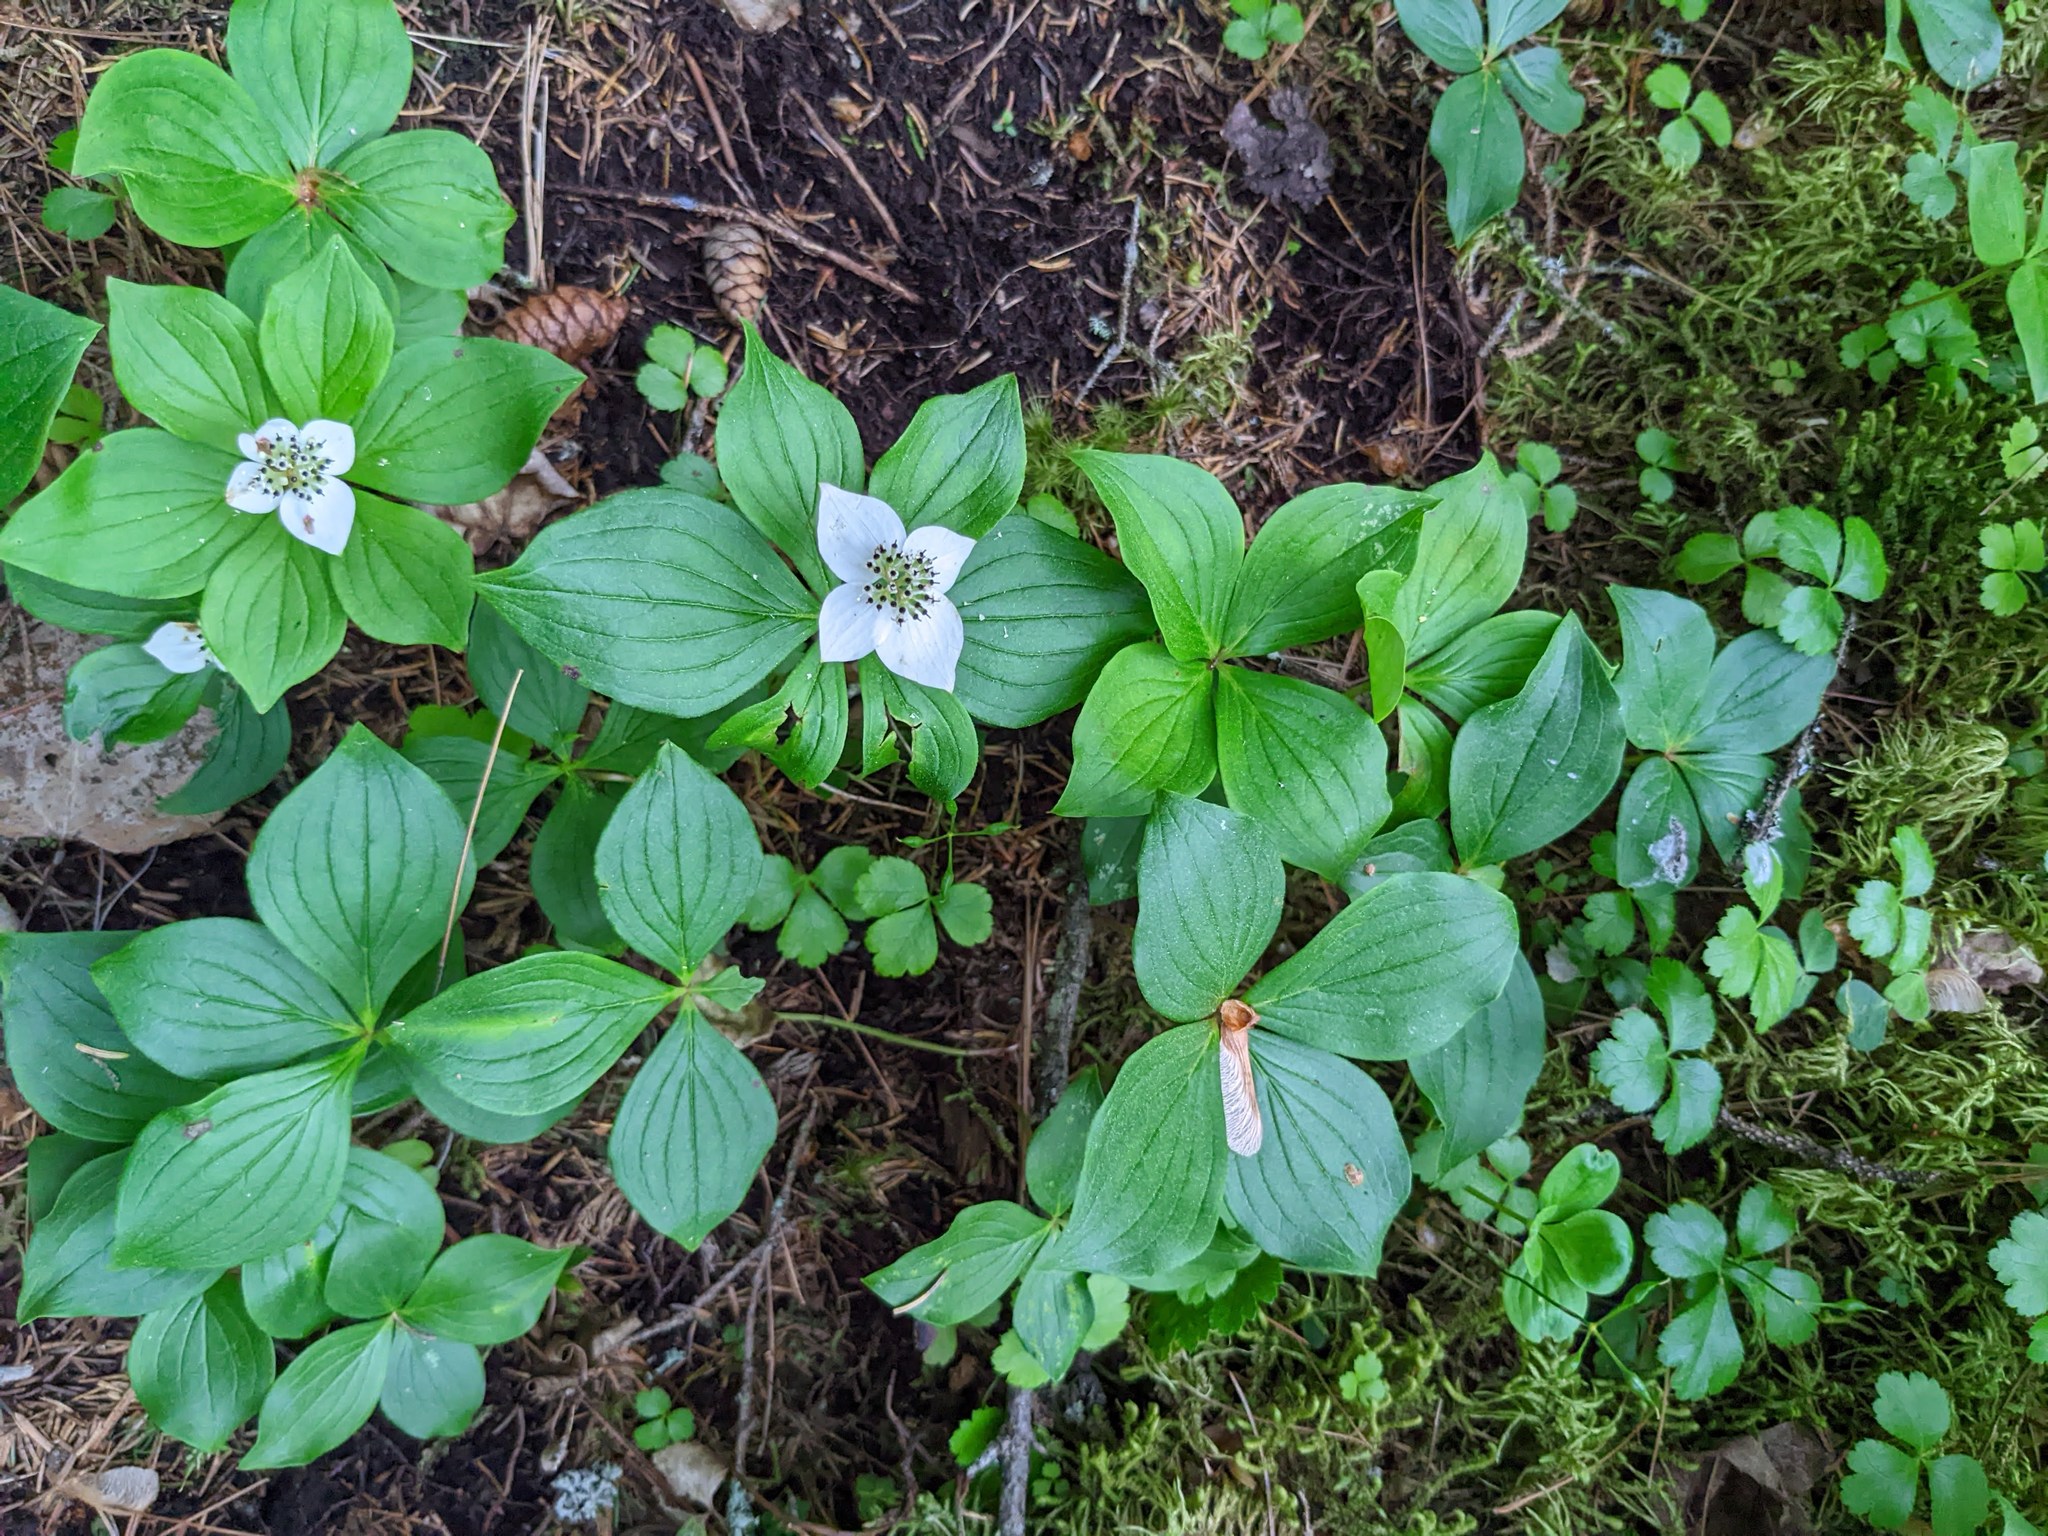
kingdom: Plantae
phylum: Tracheophyta
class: Magnoliopsida
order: Cornales
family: Cornaceae
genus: Cornus
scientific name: Cornus canadensis
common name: Creeping dogwood
